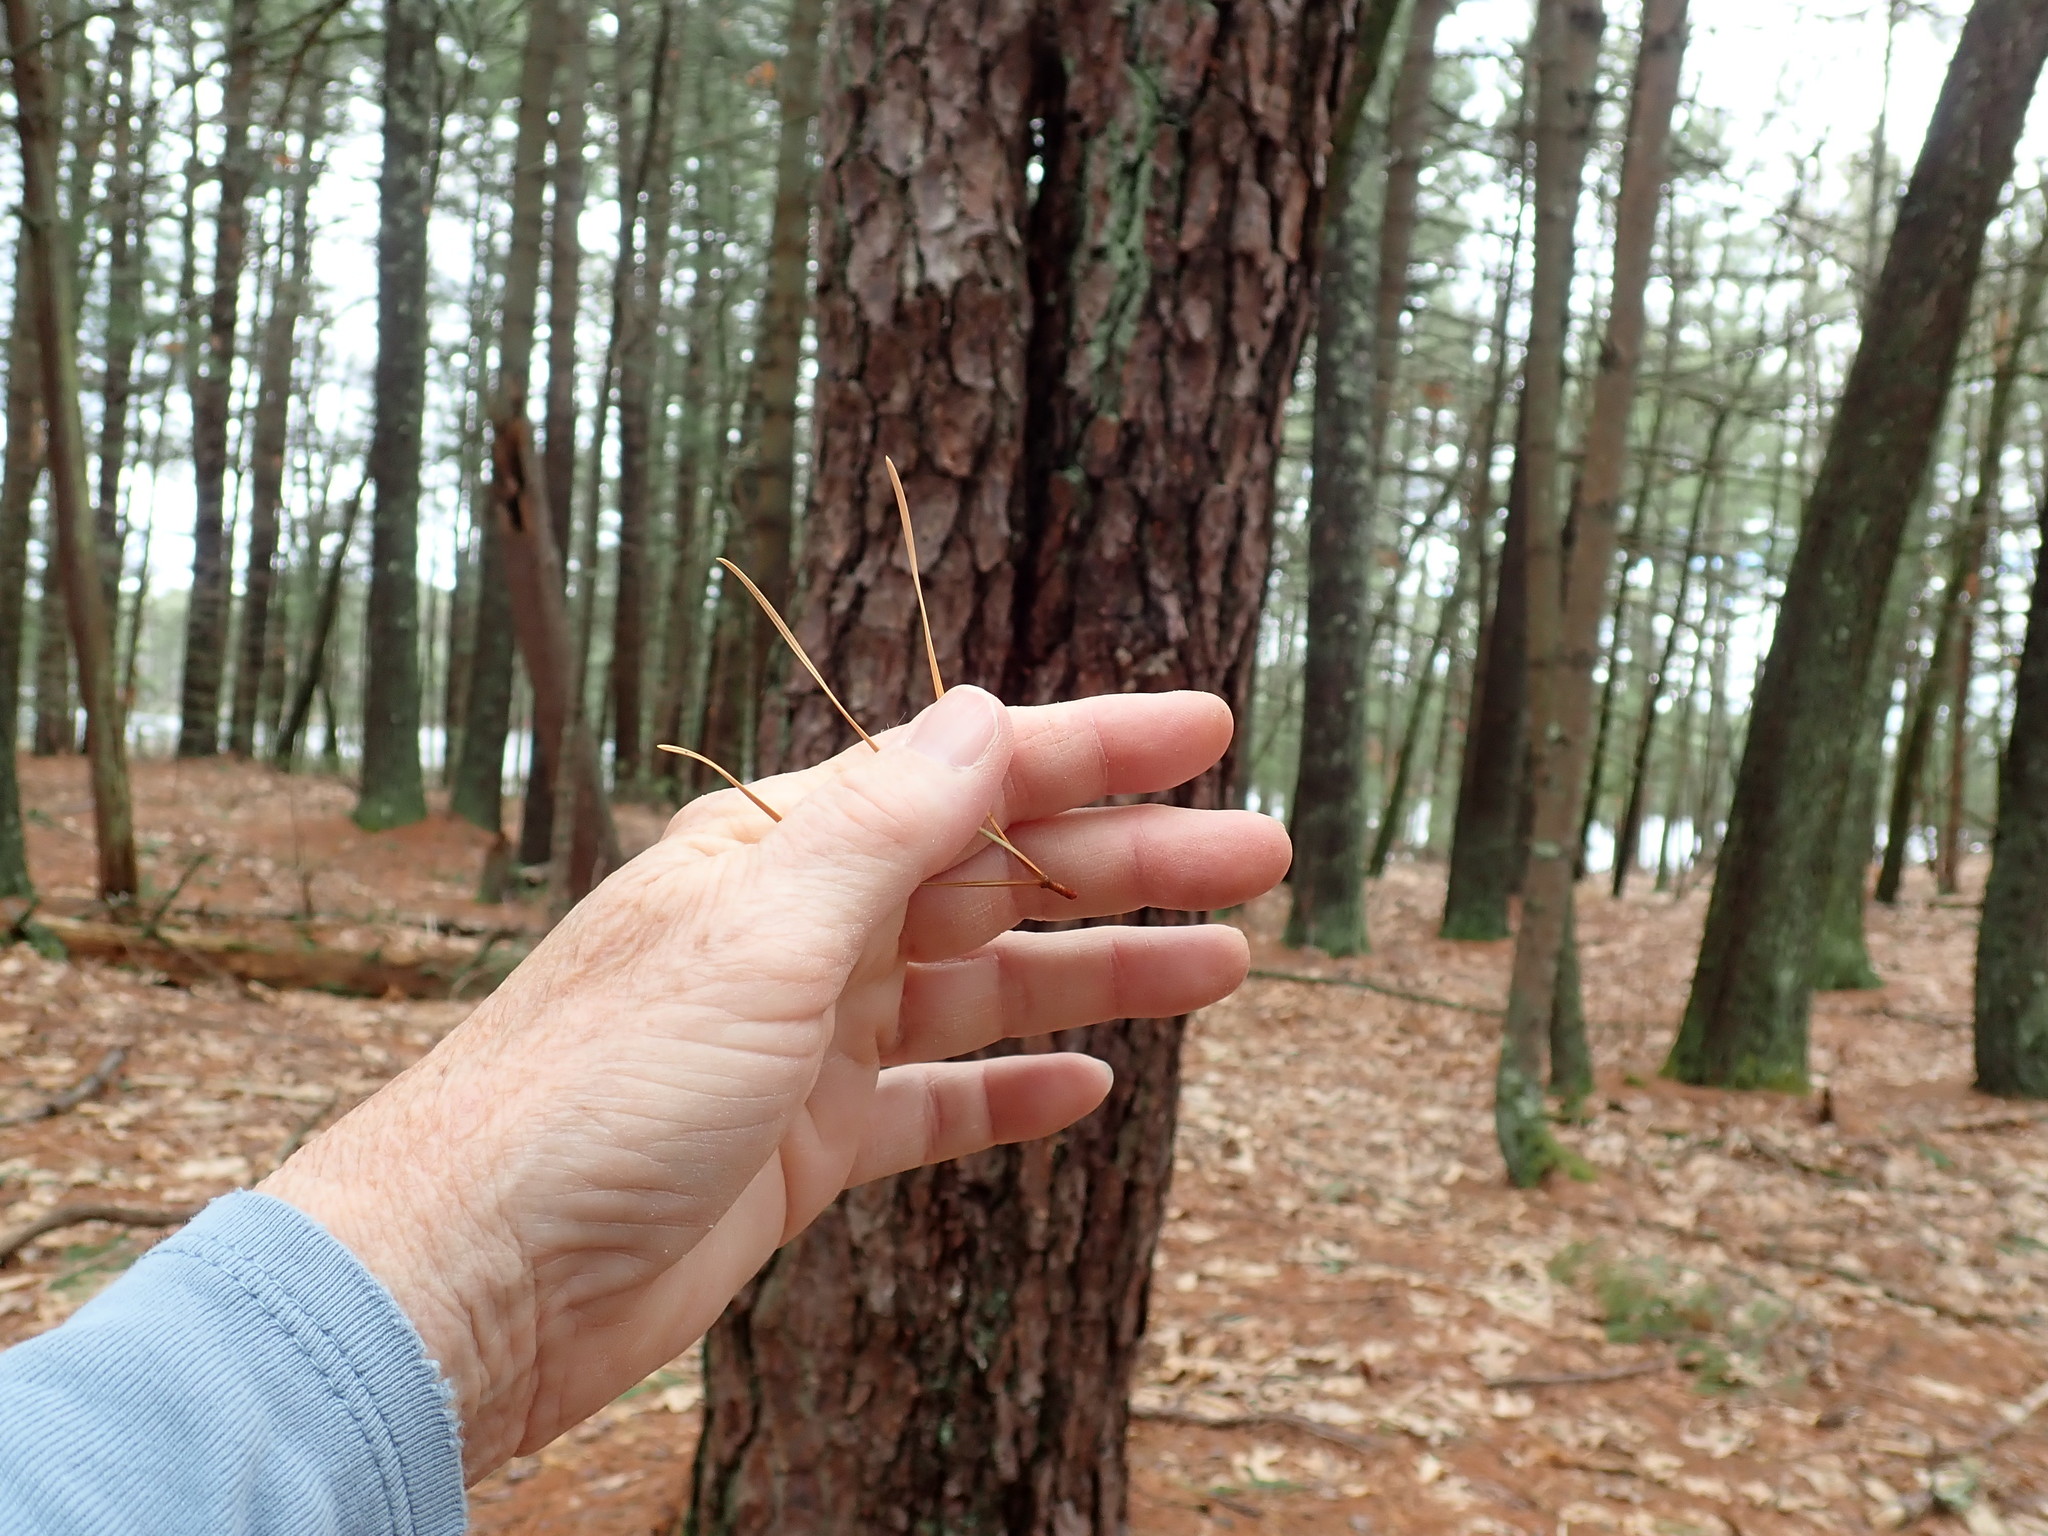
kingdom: Plantae
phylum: Tracheophyta
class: Pinopsida
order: Pinales
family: Pinaceae
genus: Pinus
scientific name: Pinus rigida
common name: Pitch pine
